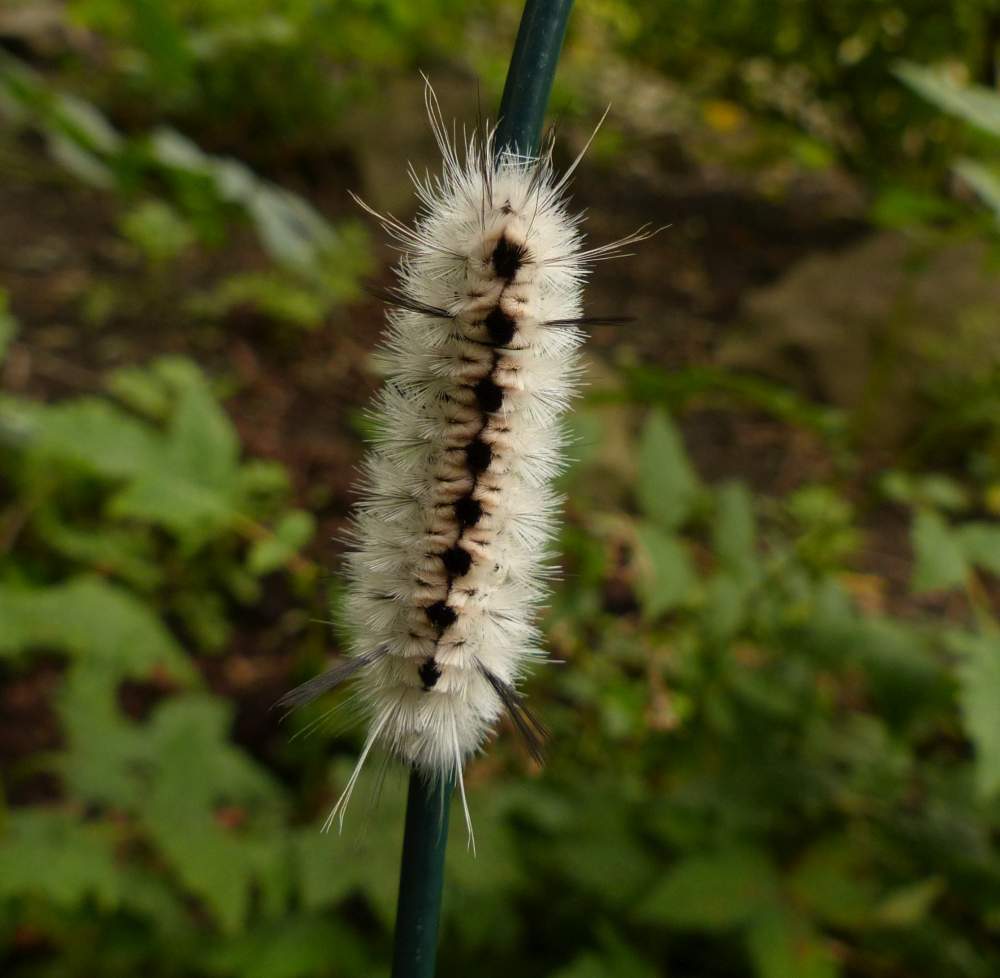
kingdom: Animalia
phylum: Arthropoda
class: Insecta
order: Lepidoptera
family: Erebidae
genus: Lophocampa
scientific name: Lophocampa caryae
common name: Hickory tussock moth
